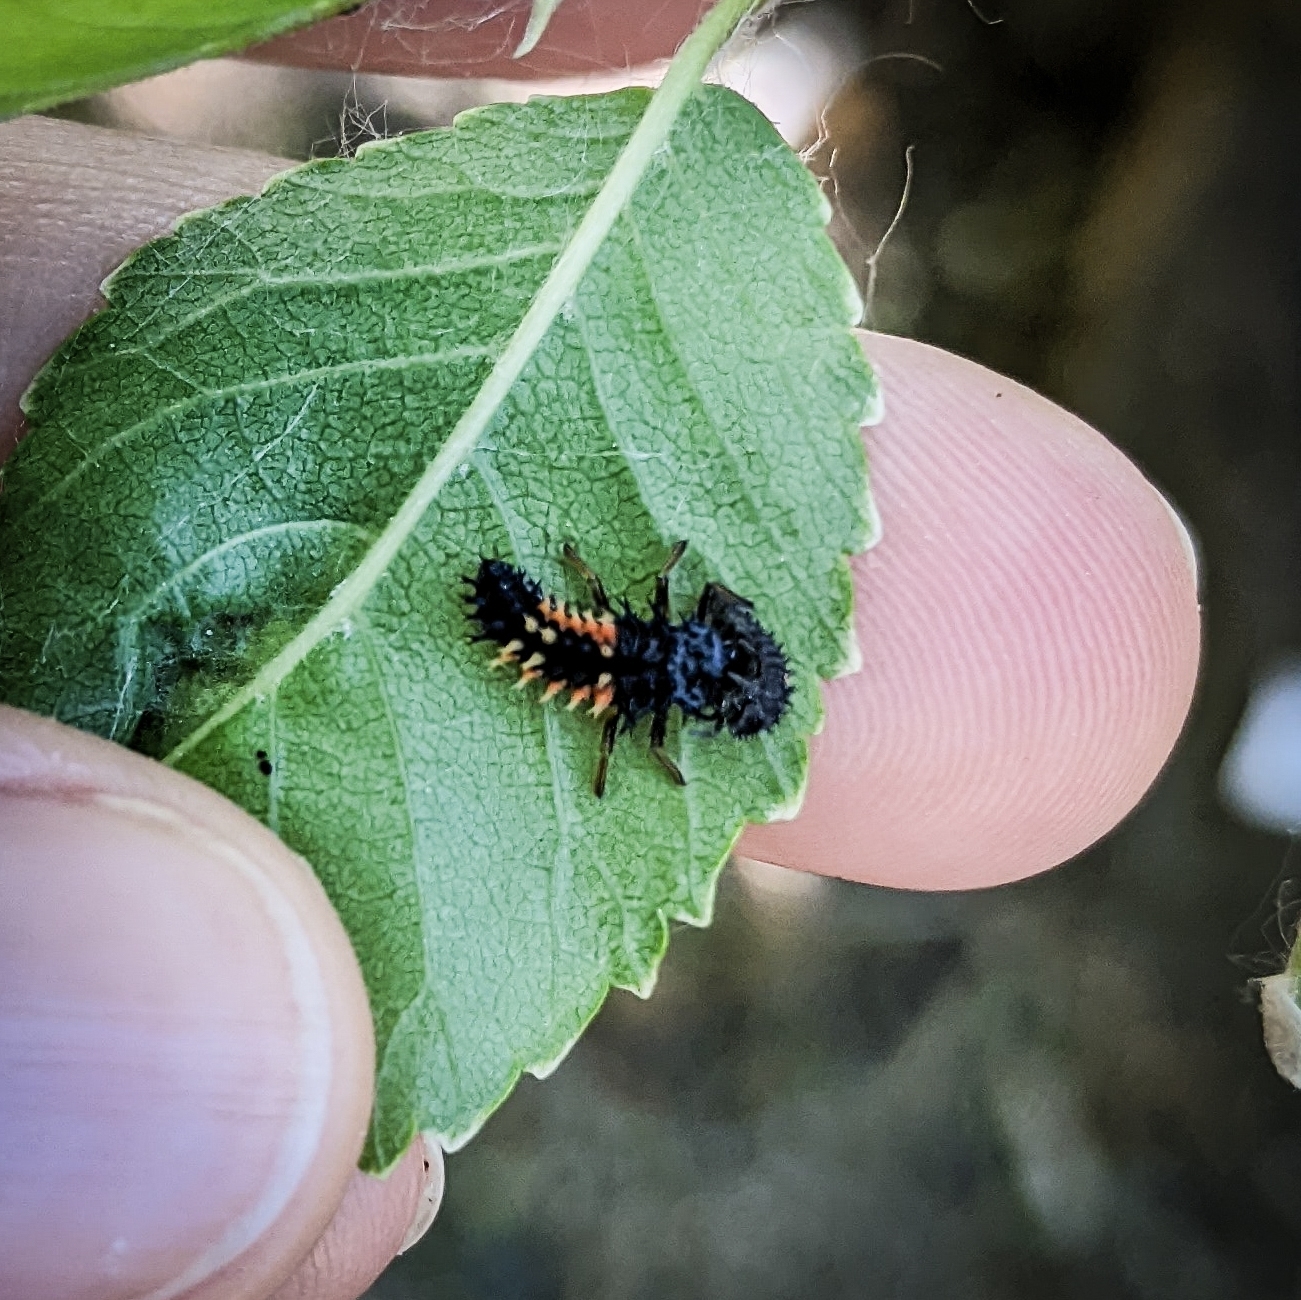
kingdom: Animalia
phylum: Arthropoda
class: Insecta
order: Coleoptera
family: Coccinellidae
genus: Harmonia
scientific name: Harmonia axyridis
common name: Harlequin ladybird
